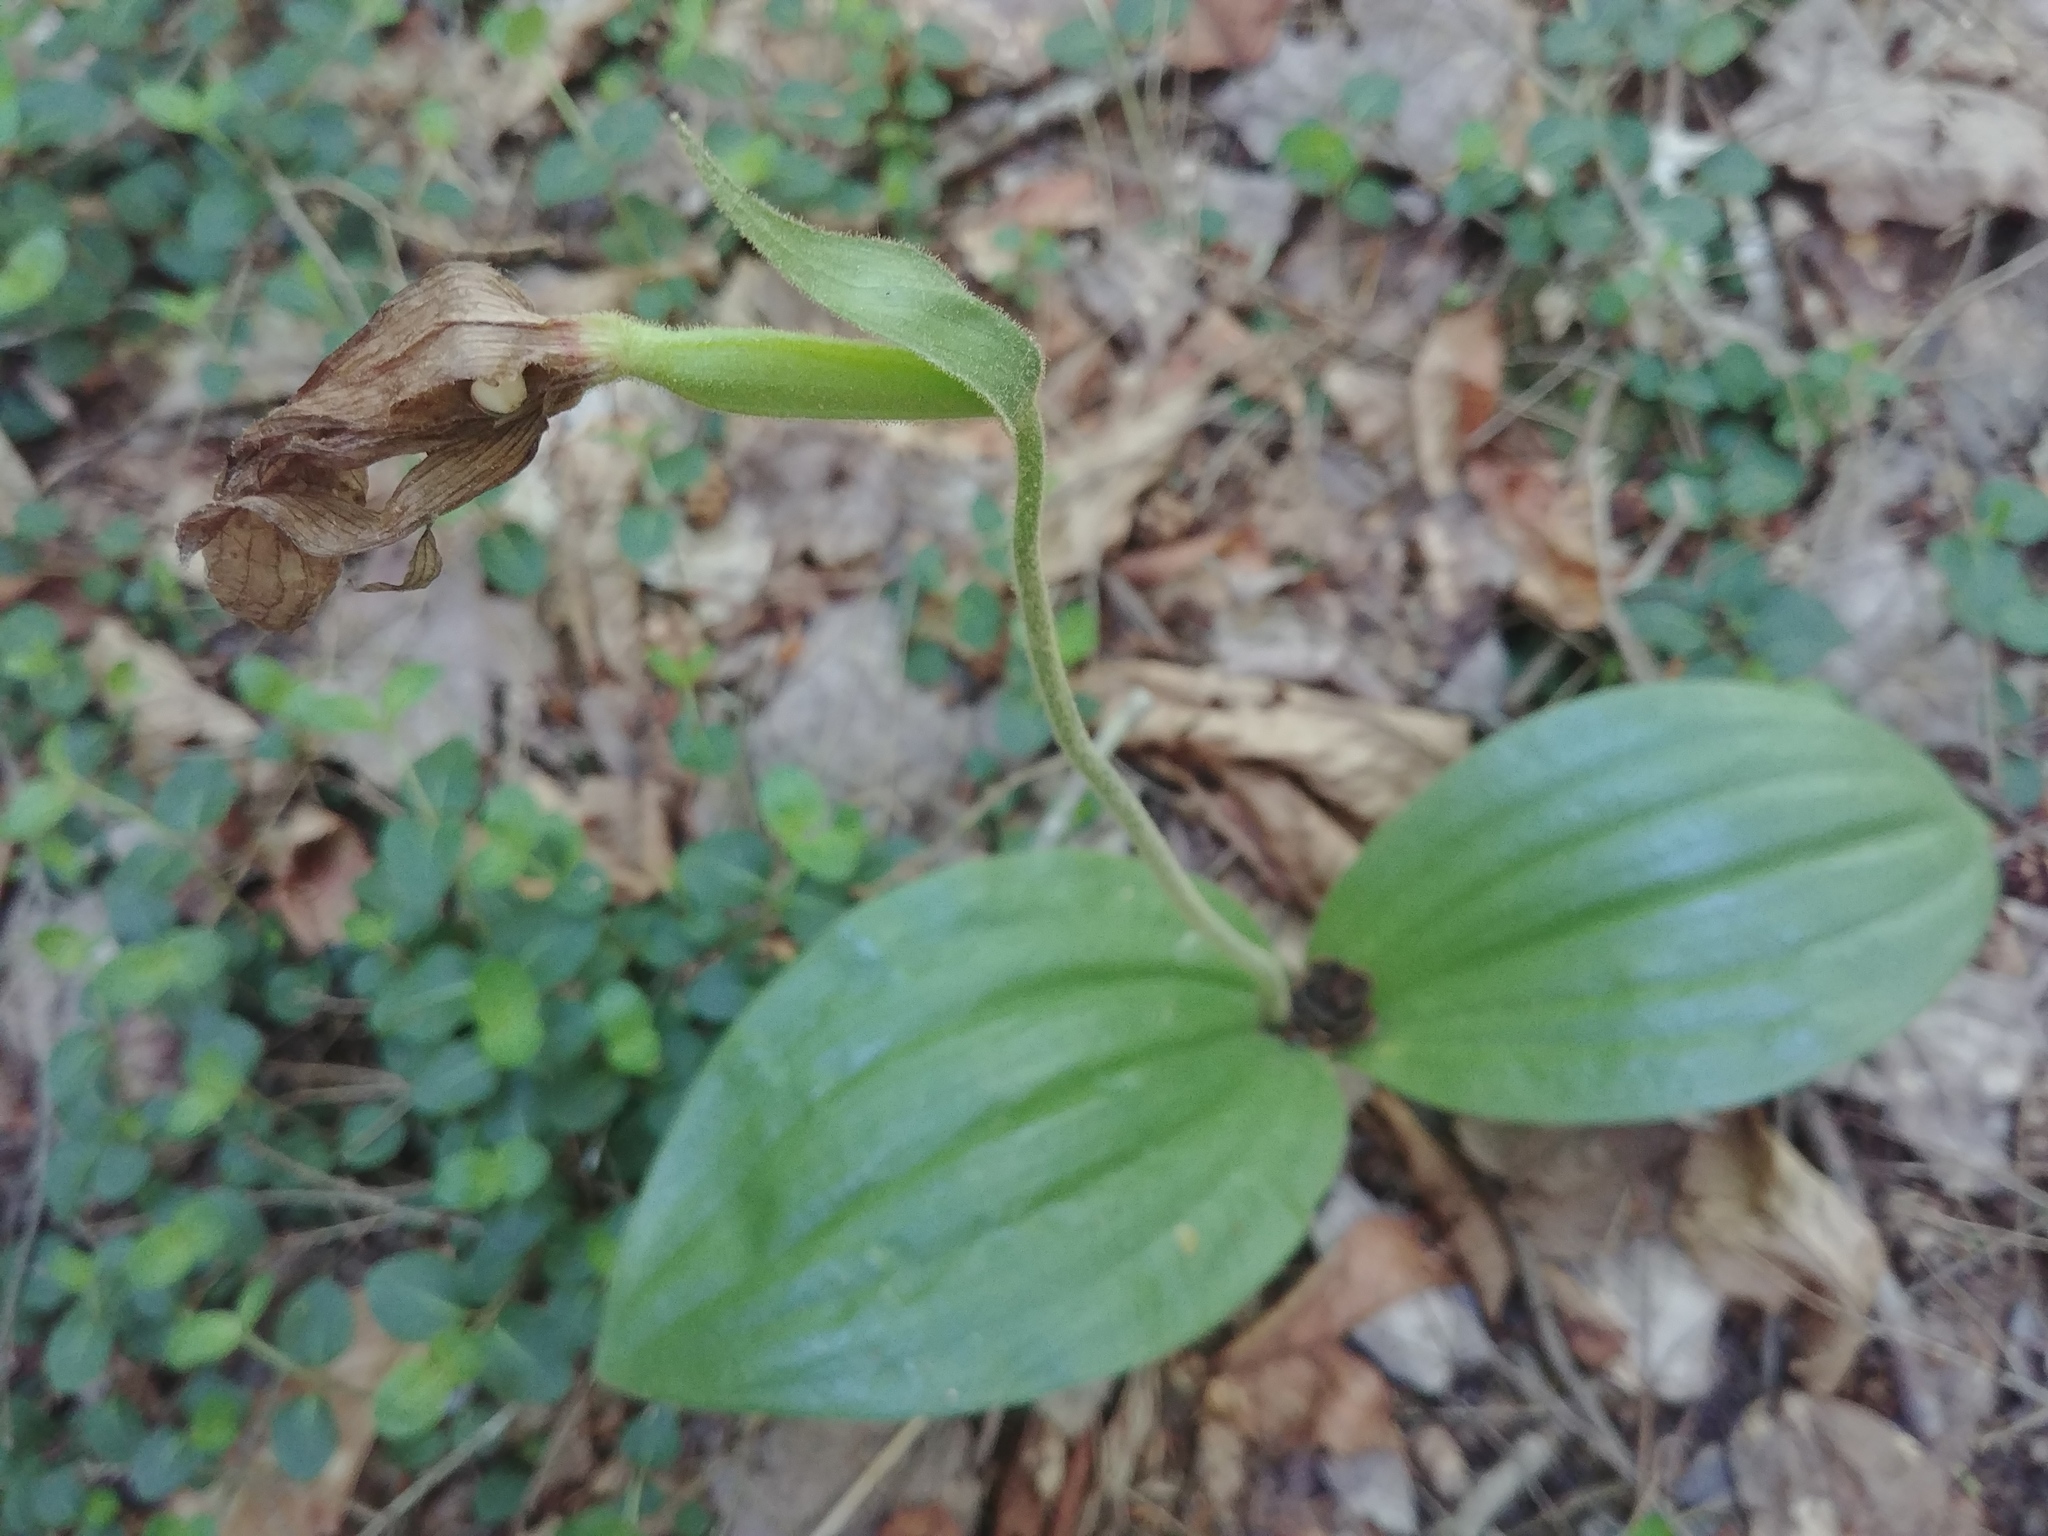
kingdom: Plantae
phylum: Tracheophyta
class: Liliopsida
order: Asparagales
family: Orchidaceae
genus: Cypripedium
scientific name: Cypripedium acaule
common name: Pink lady's-slipper
